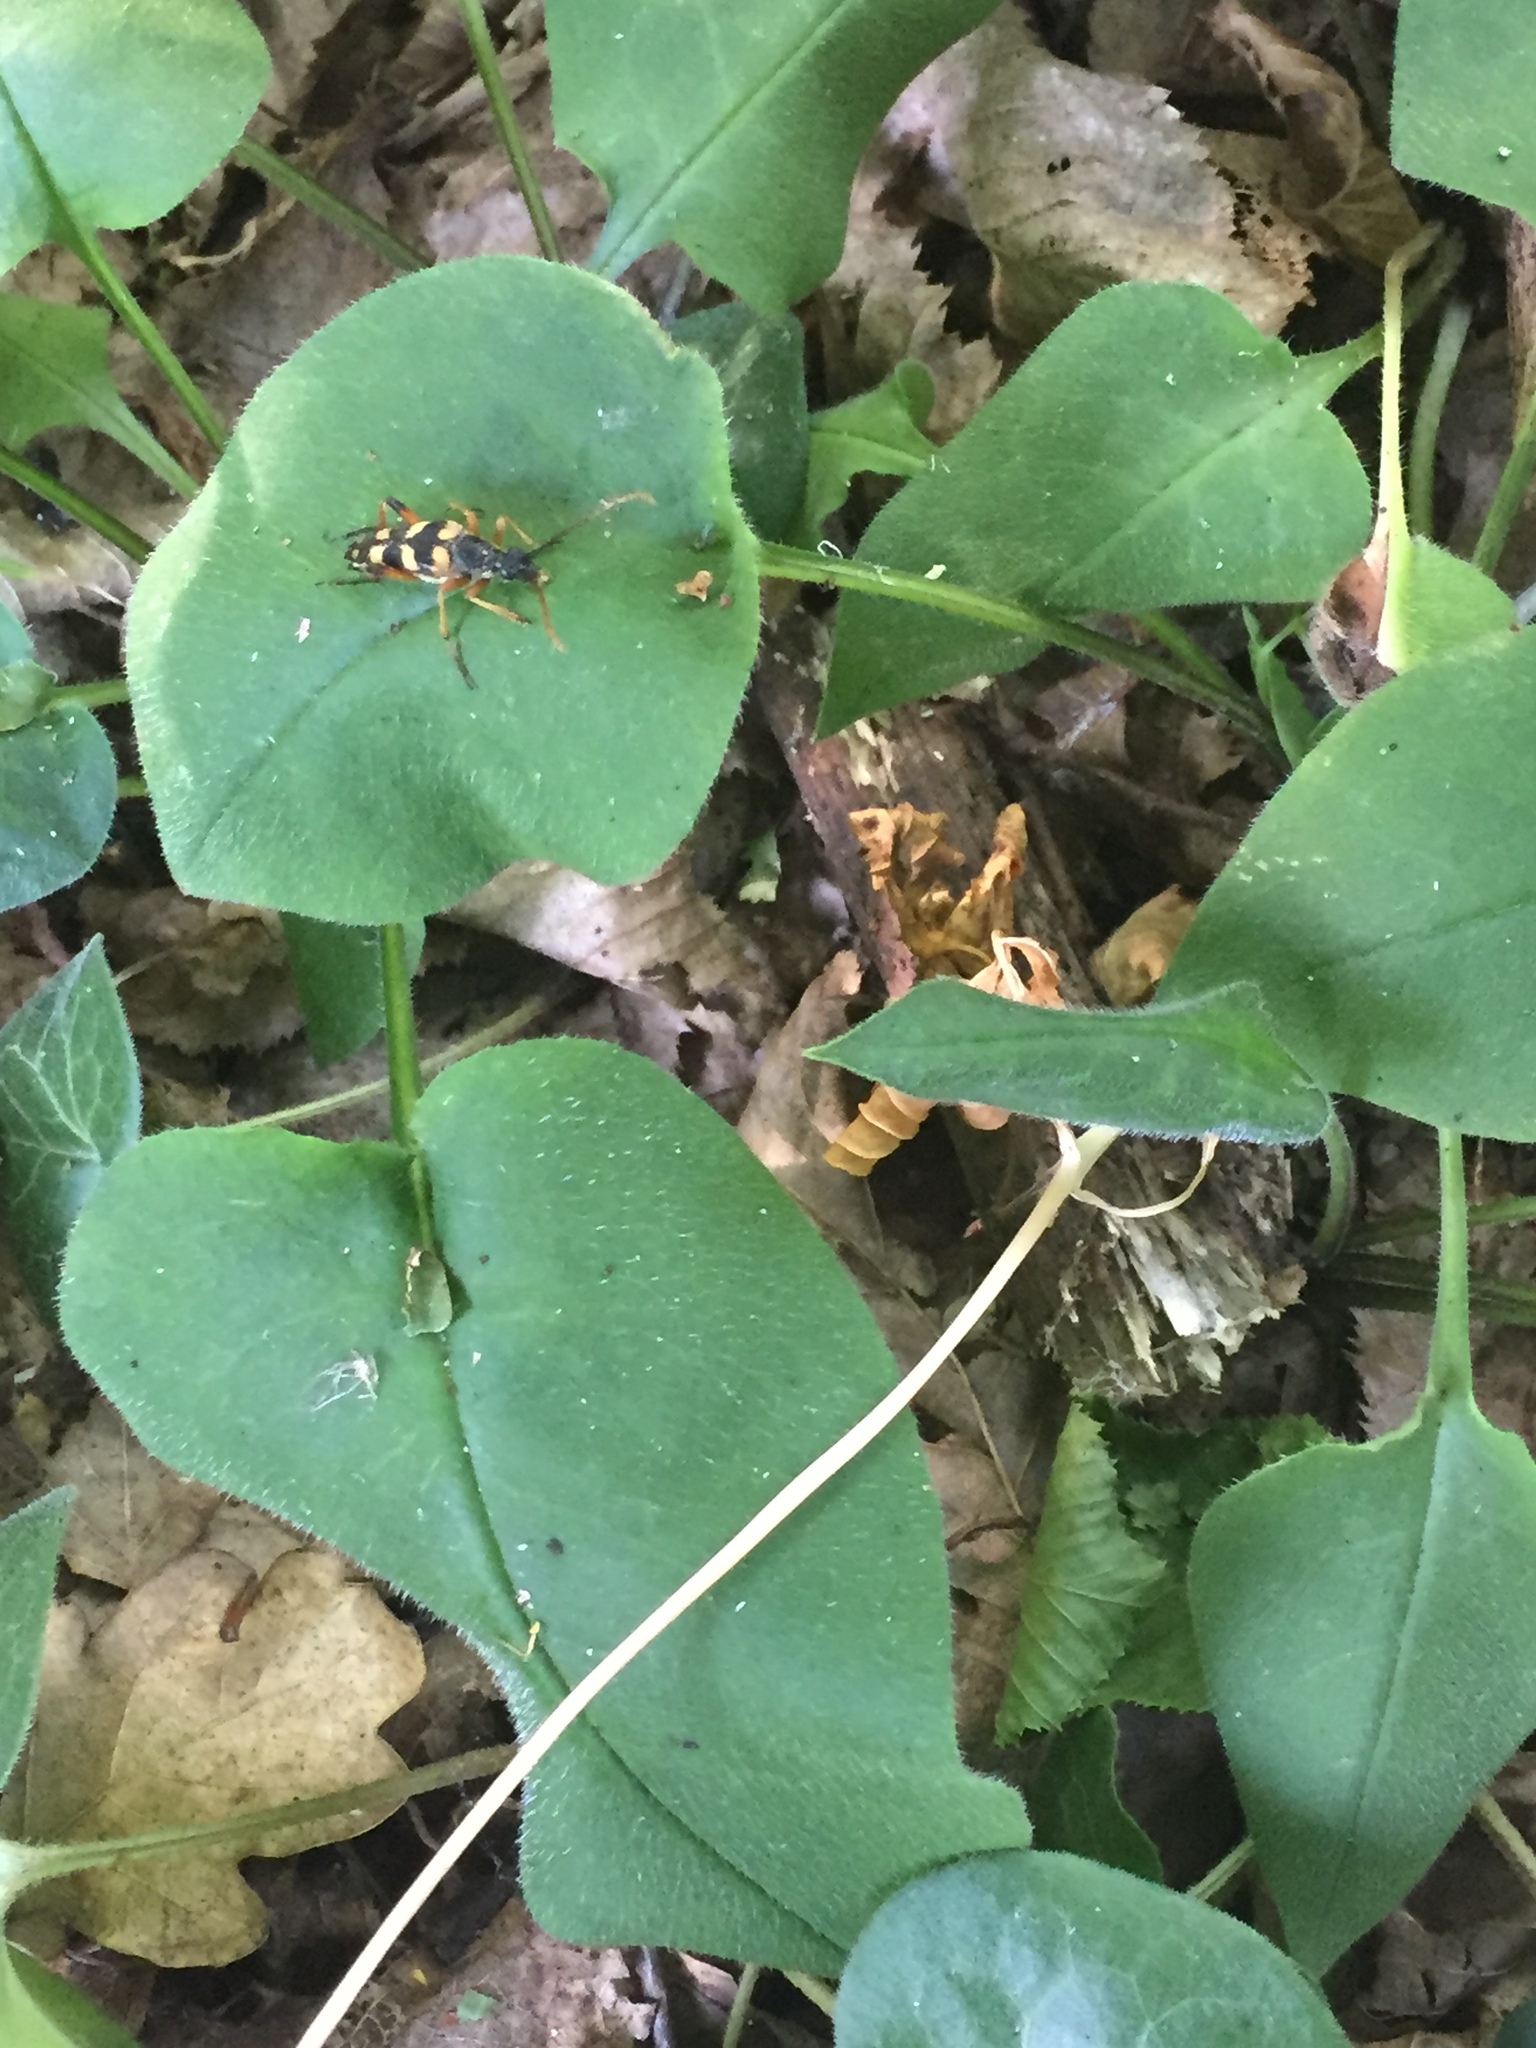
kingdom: Animalia
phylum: Arthropoda
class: Insecta
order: Coleoptera
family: Cerambycidae
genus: Strangalia
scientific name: Strangalia attenuata
